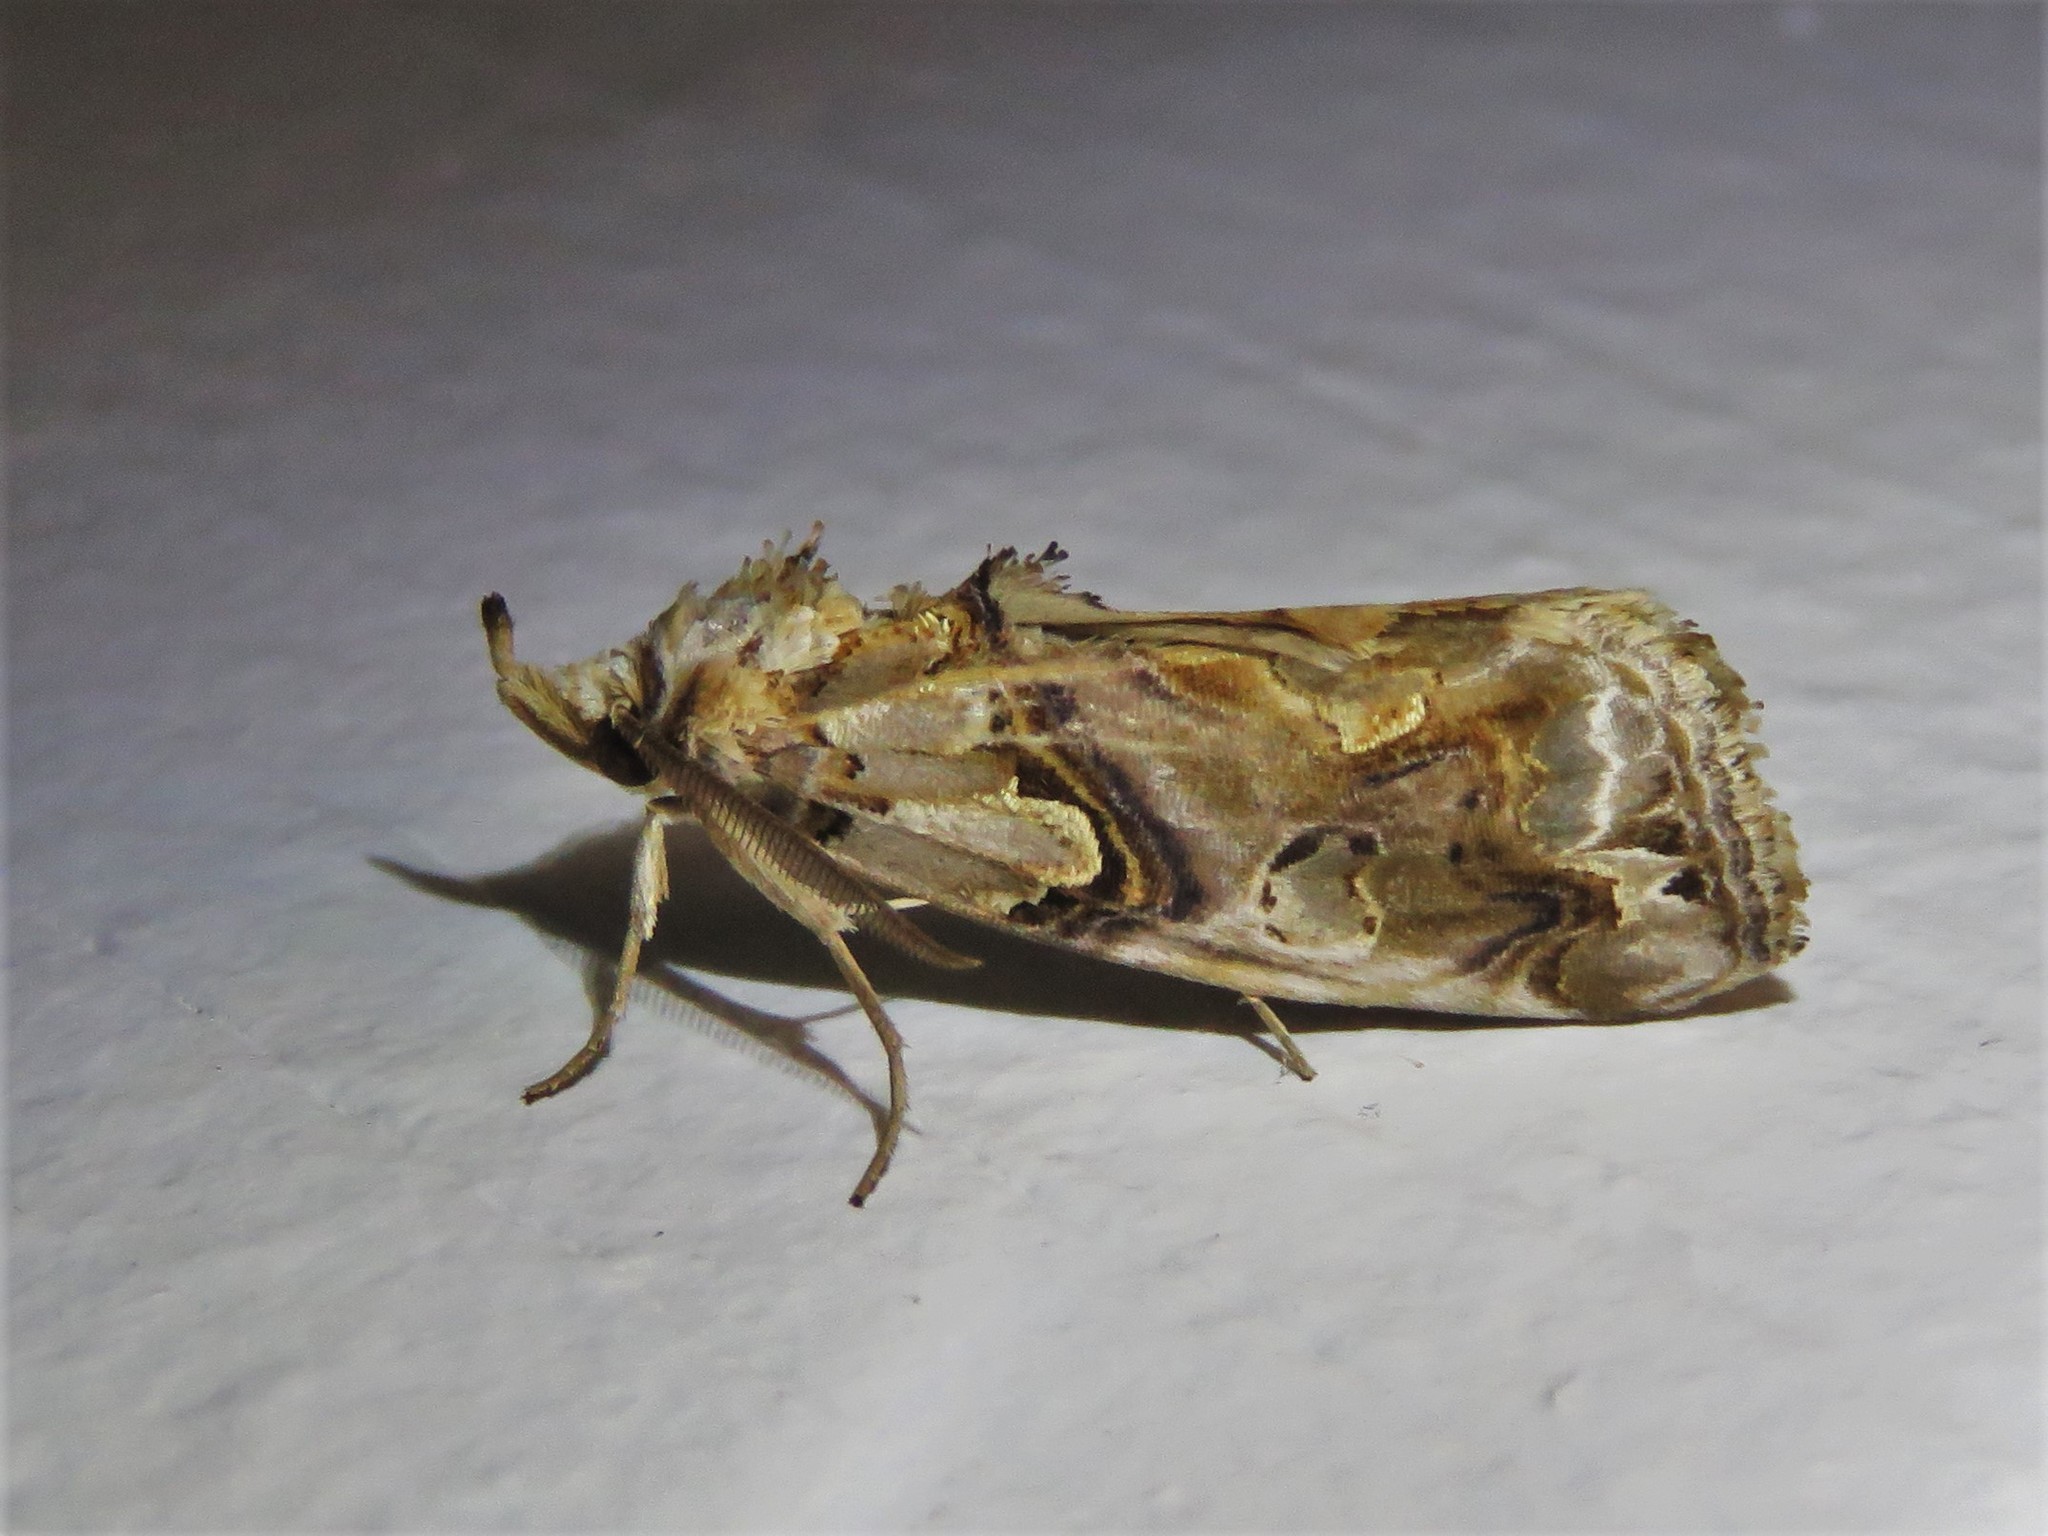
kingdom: Animalia
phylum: Arthropoda
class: Insecta
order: Lepidoptera
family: Erebidae
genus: Plusiodonta
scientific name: Plusiodonta compressipalpis
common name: Moonseed moth
